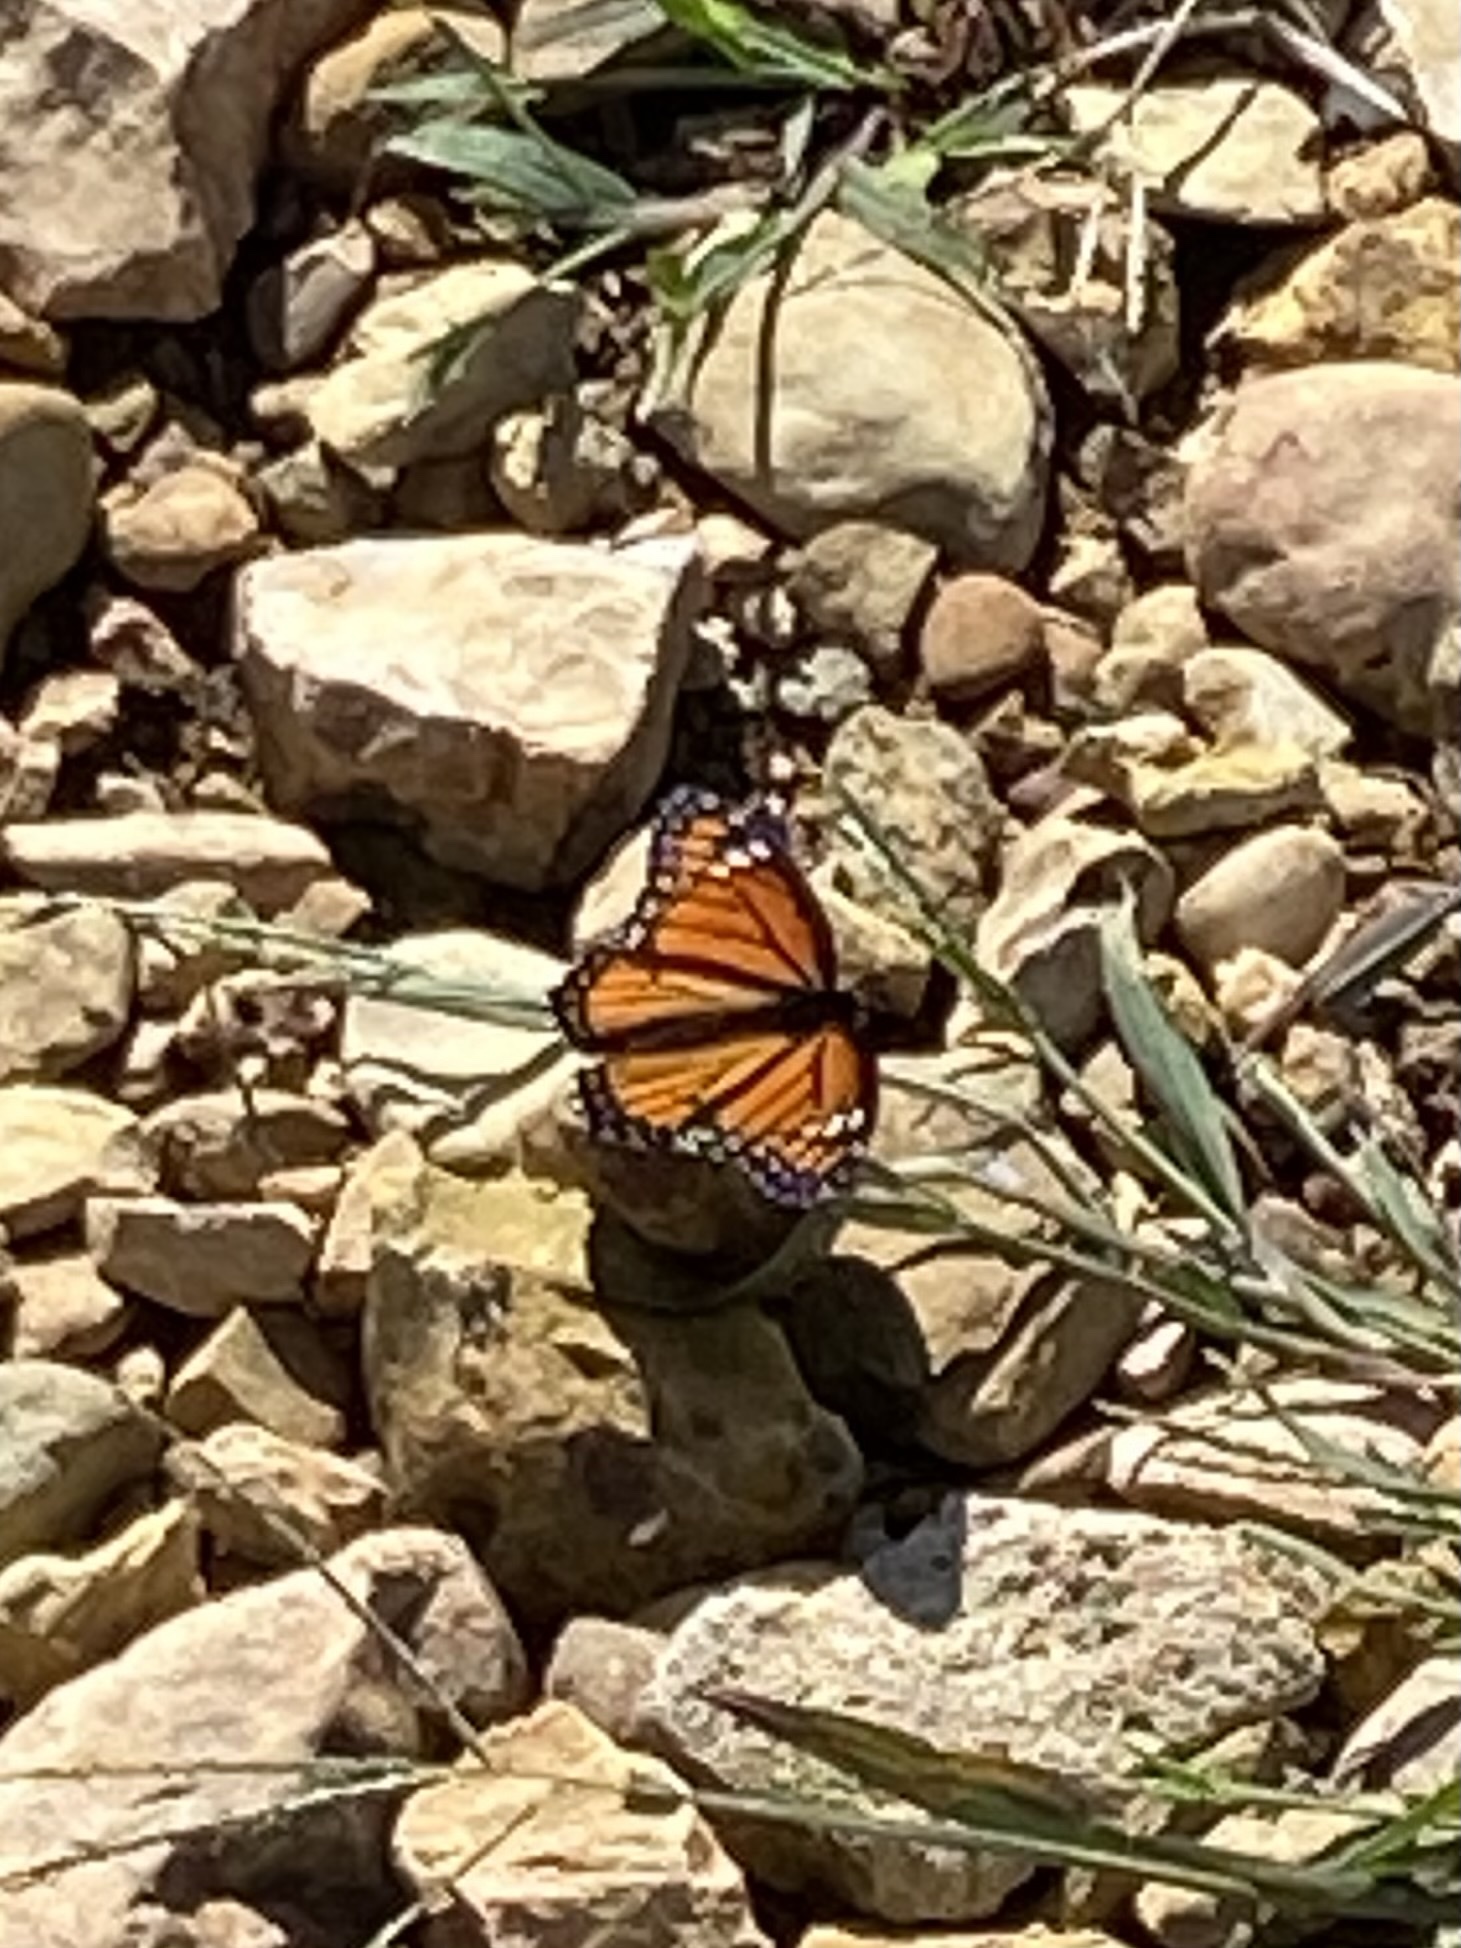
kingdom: Animalia
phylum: Arthropoda
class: Insecta
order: Lepidoptera
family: Nymphalidae
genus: Limenitis
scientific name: Limenitis archippus
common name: Viceroy
